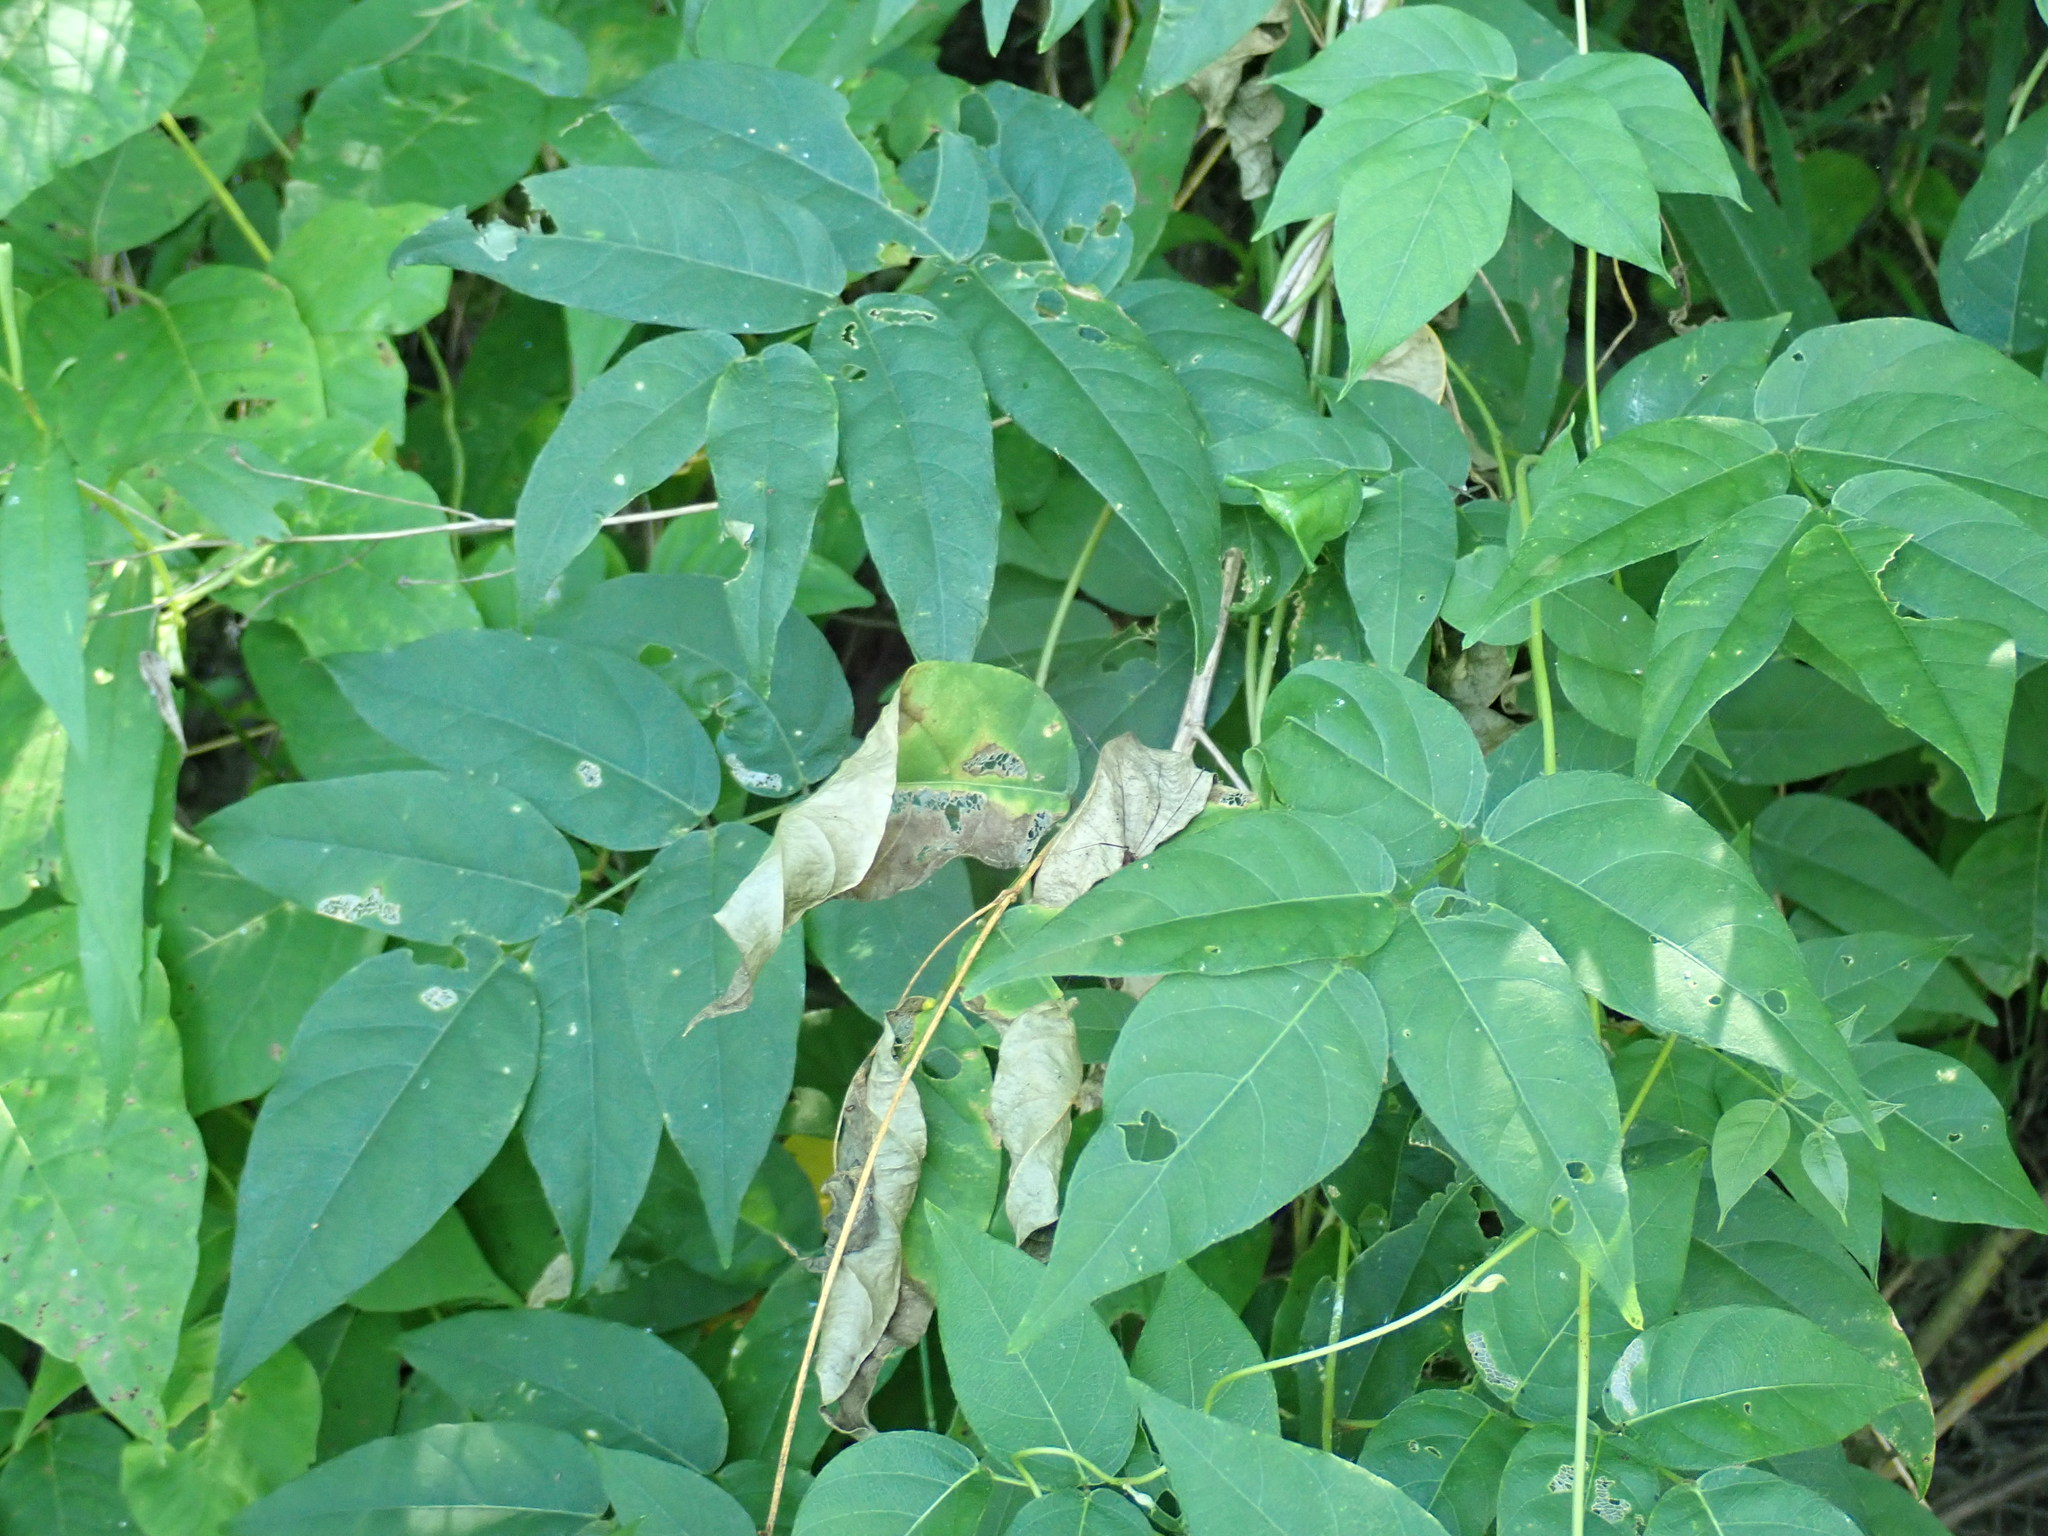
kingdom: Plantae
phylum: Tracheophyta
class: Magnoliopsida
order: Fabales
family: Fabaceae
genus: Apios
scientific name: Apios americana
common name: American potato-bean
